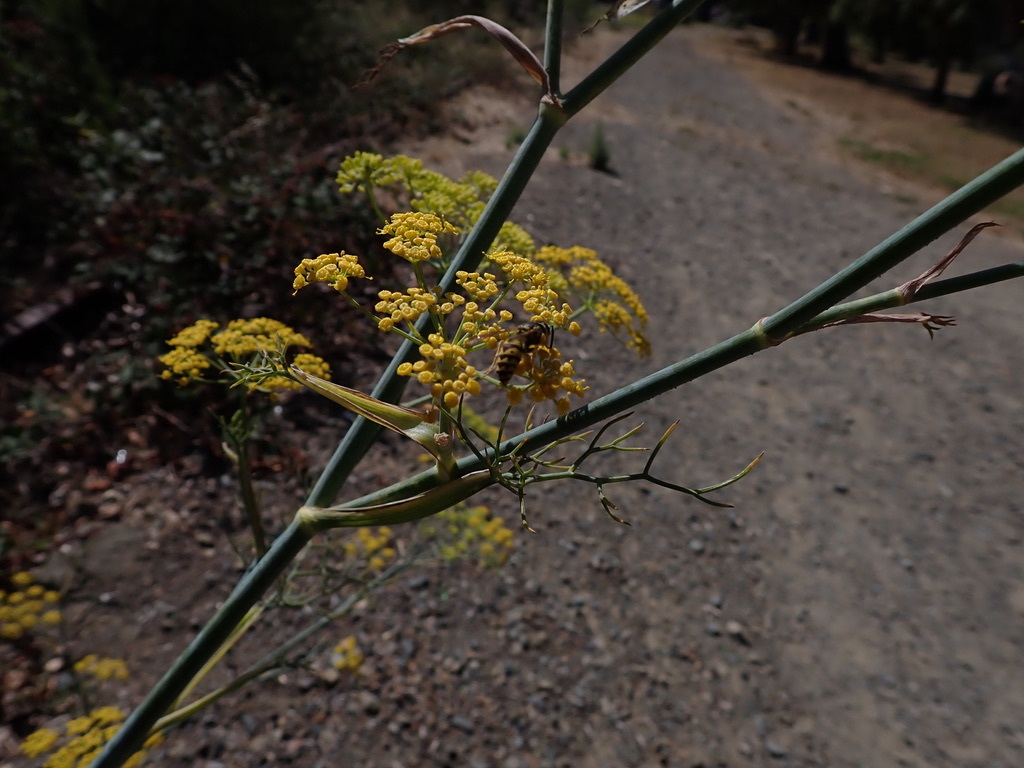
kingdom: Animalia
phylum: Arthropoda
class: Insecta
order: Hymenoptera
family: Vespidae
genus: Vespula
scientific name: Vespula pensylvanica
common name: Western yellowjacket
